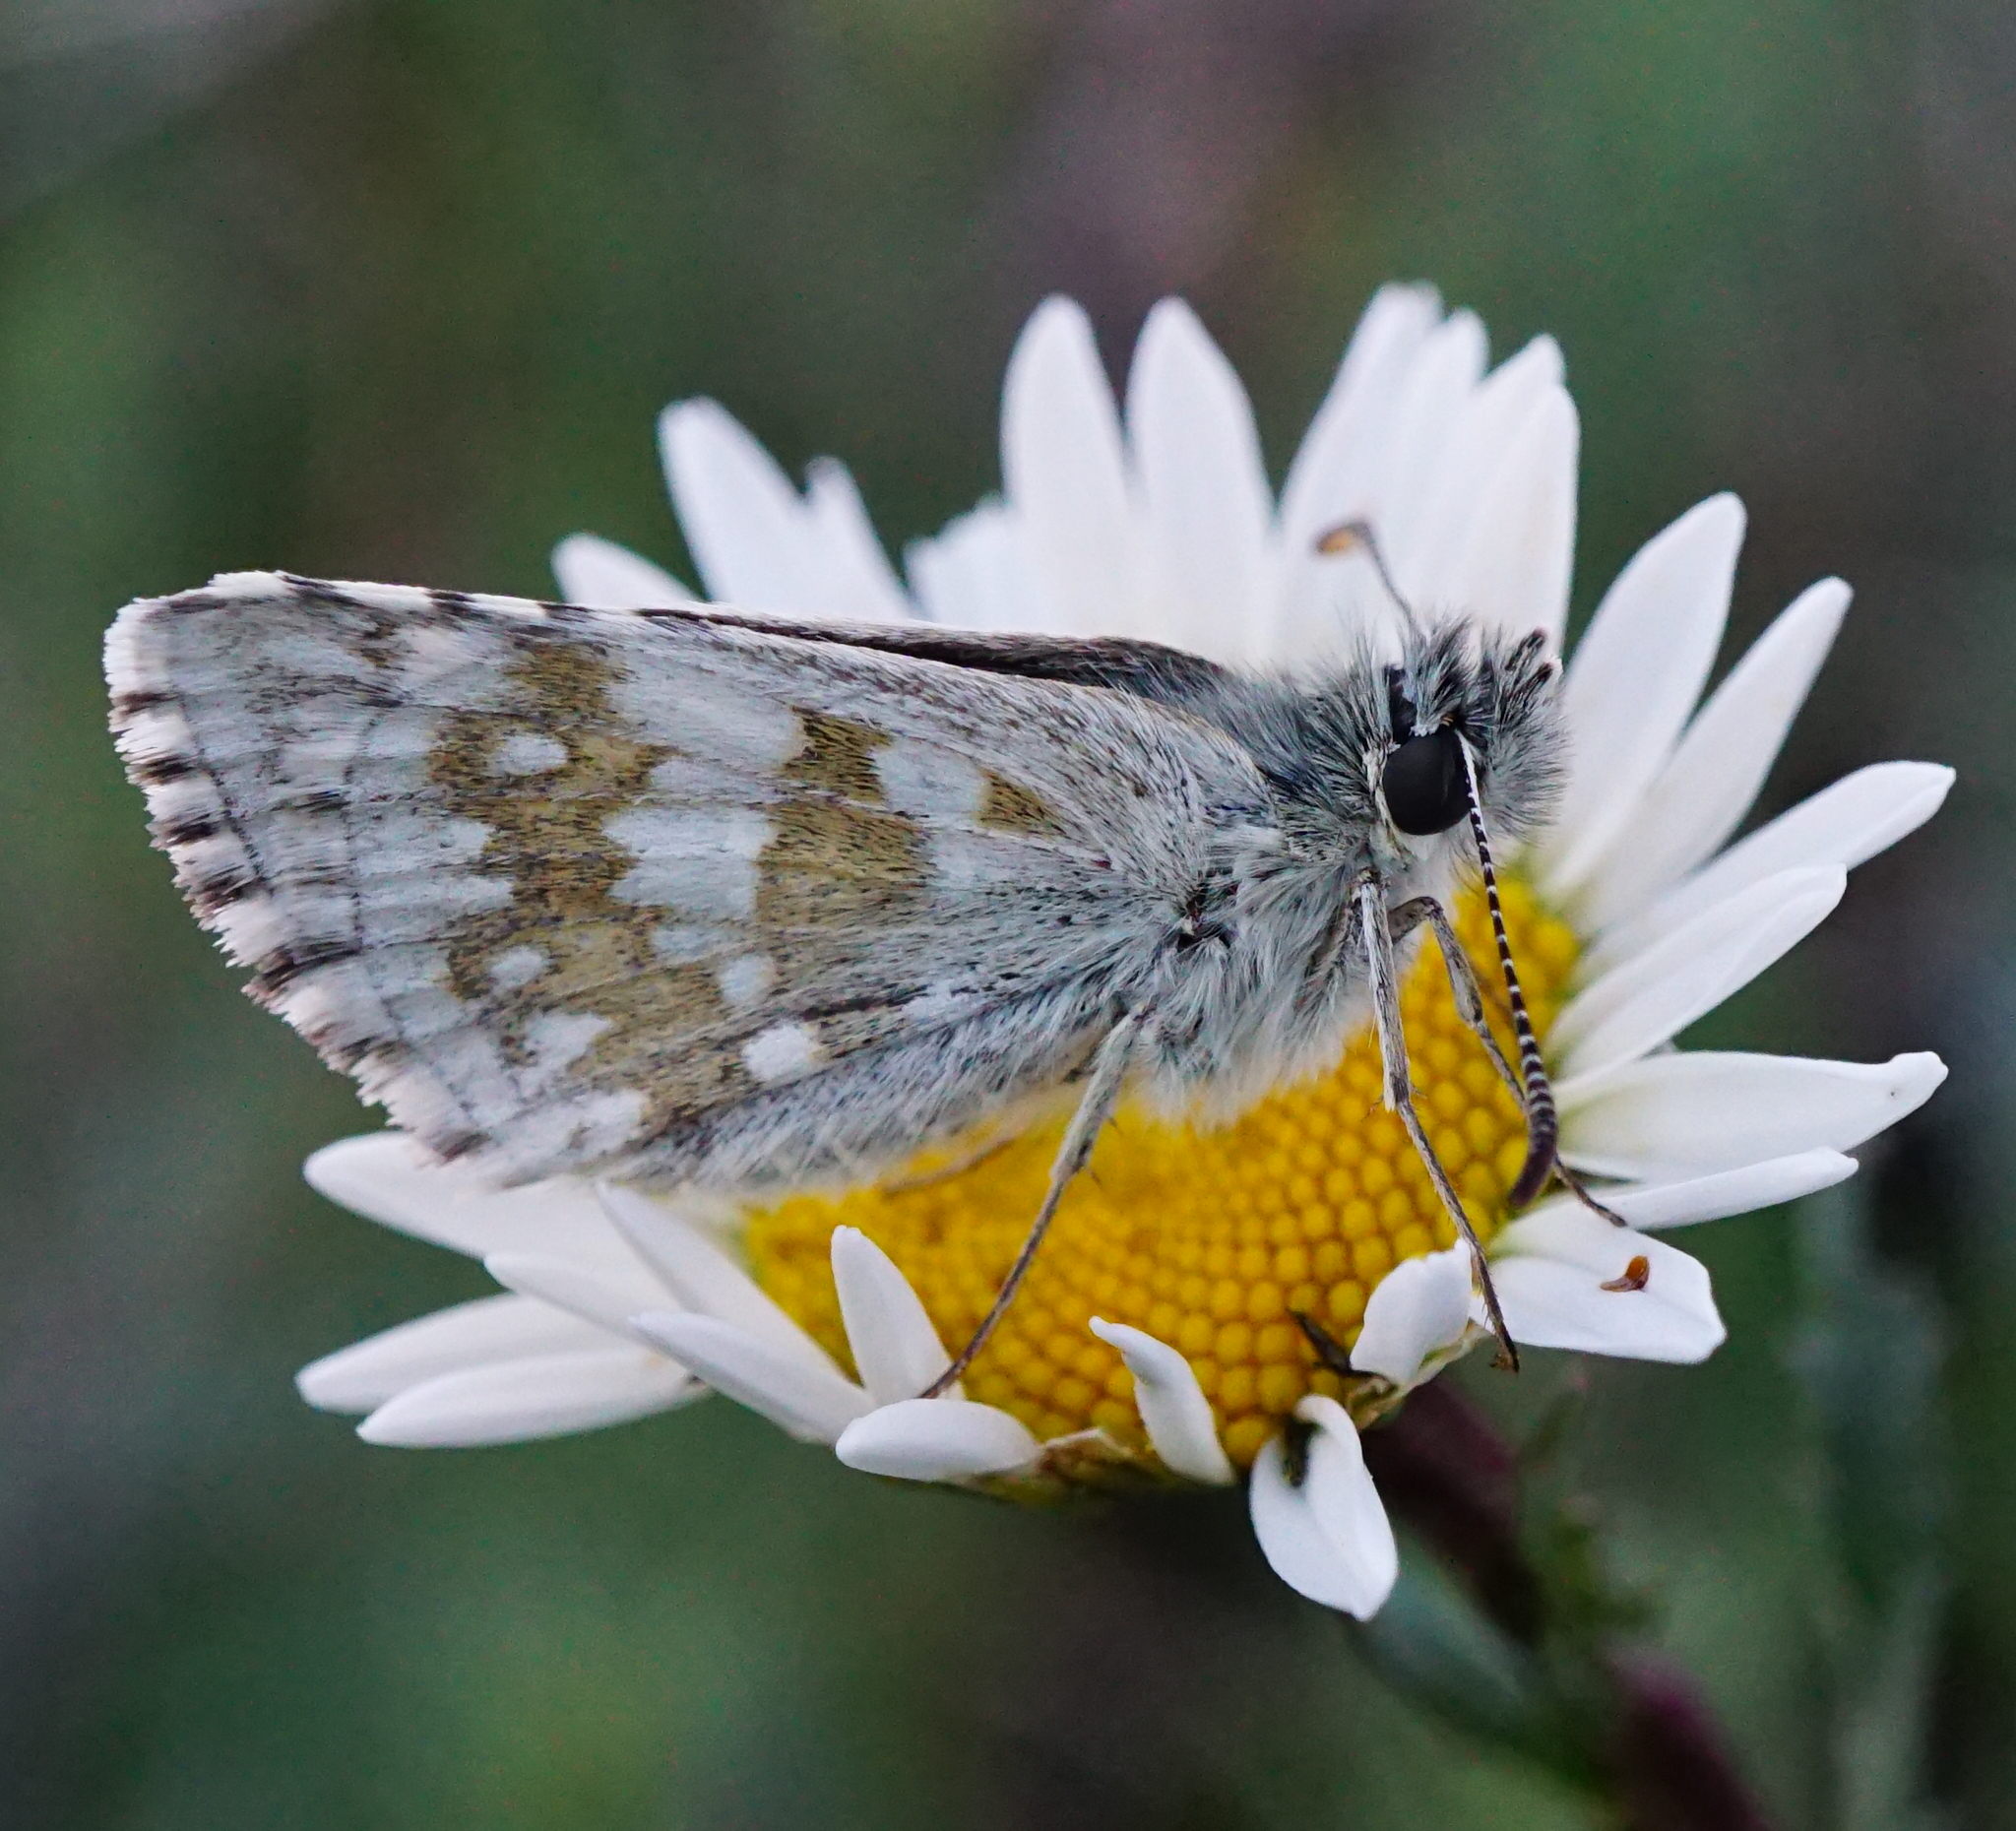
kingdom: Animalia
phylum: Arthropoda
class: Insecta
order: Lepidoptera
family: Hesperiidae
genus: Pyrgus
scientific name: Pyrgus fritillarius
